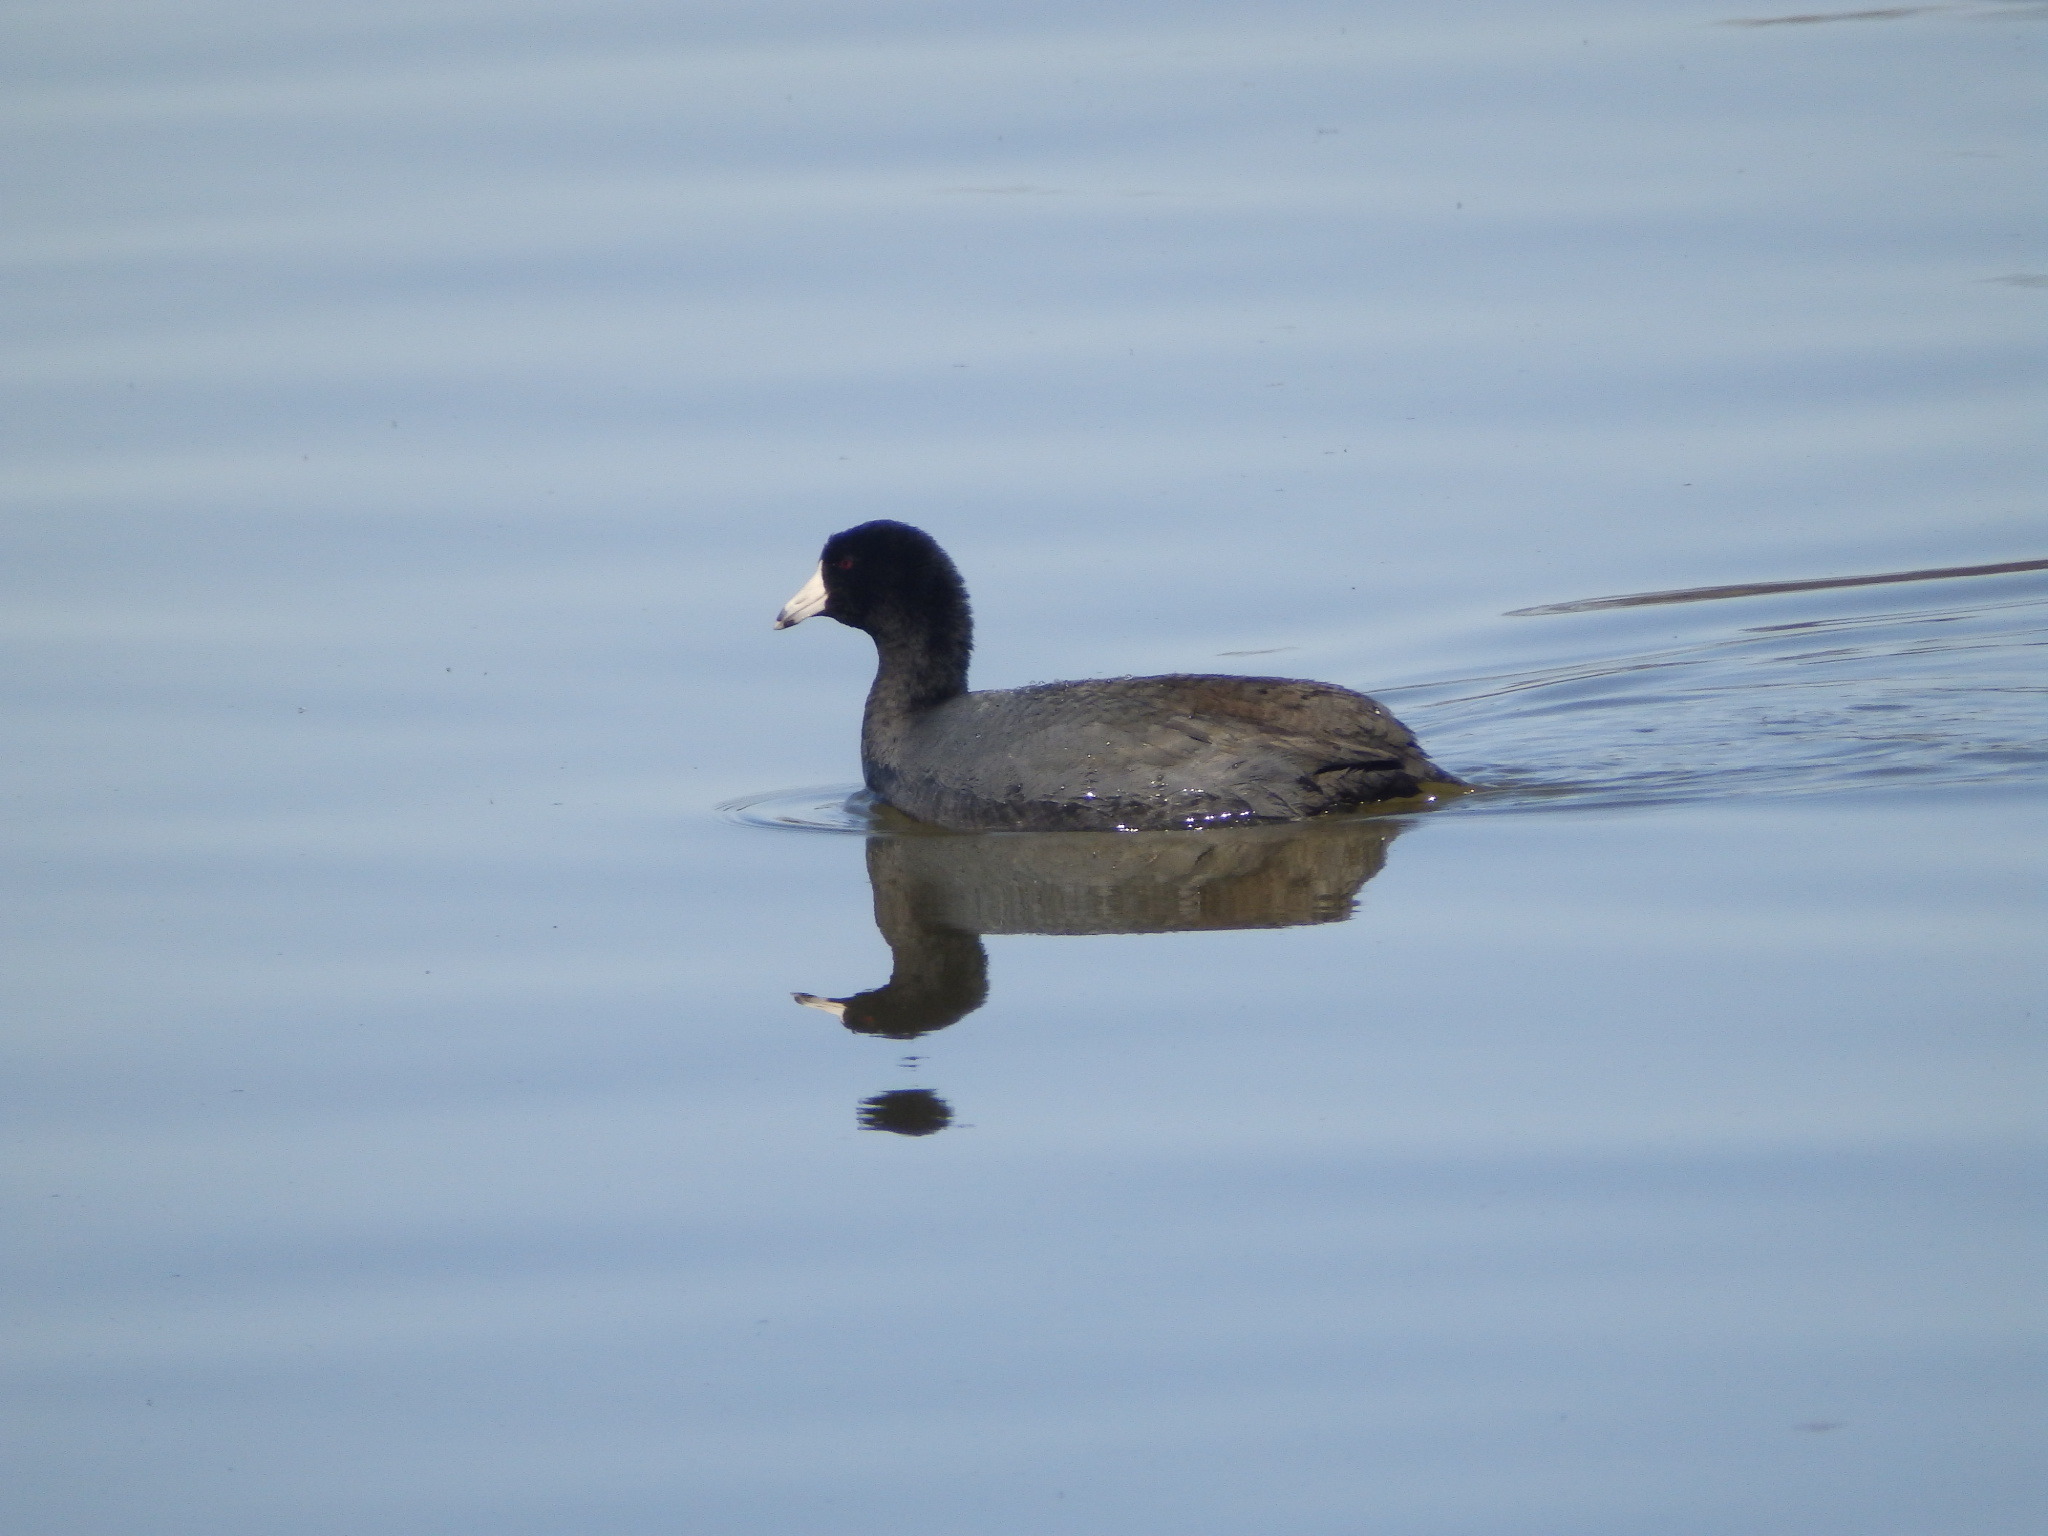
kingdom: Animalia
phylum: Chordata
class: Aves
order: Gruiformes
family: Rallidae
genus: Fulica
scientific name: Fulica americana
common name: American coot
